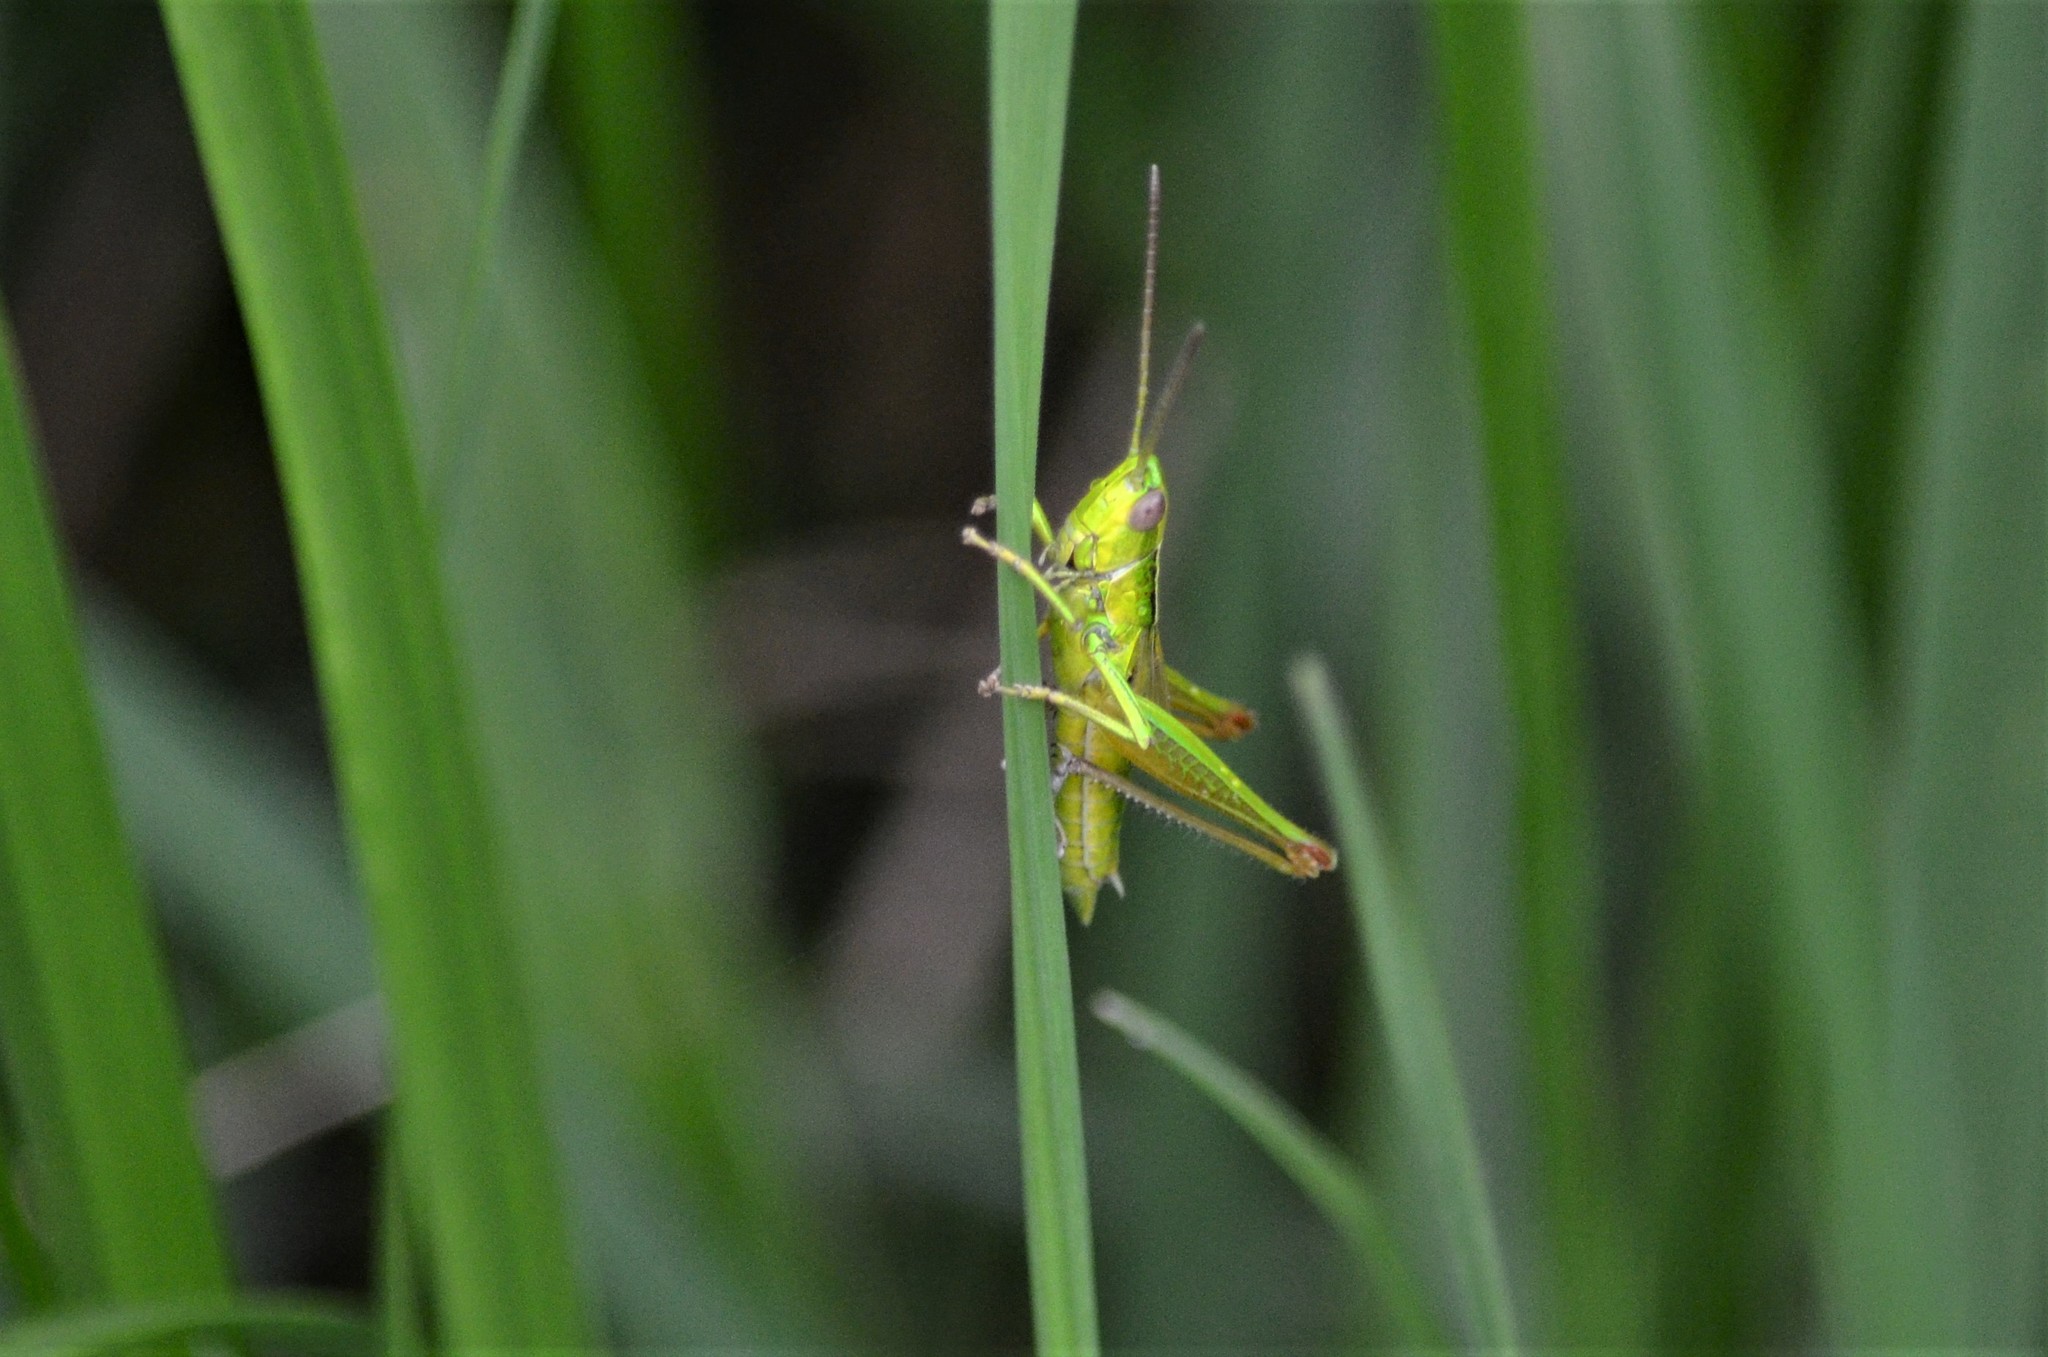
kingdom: Animalia
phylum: Arthropoda
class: Insecta
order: Orthoptera
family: Acrididae
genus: Euthystira
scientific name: Euthystira brachyptera
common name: Small gold grasshopper
